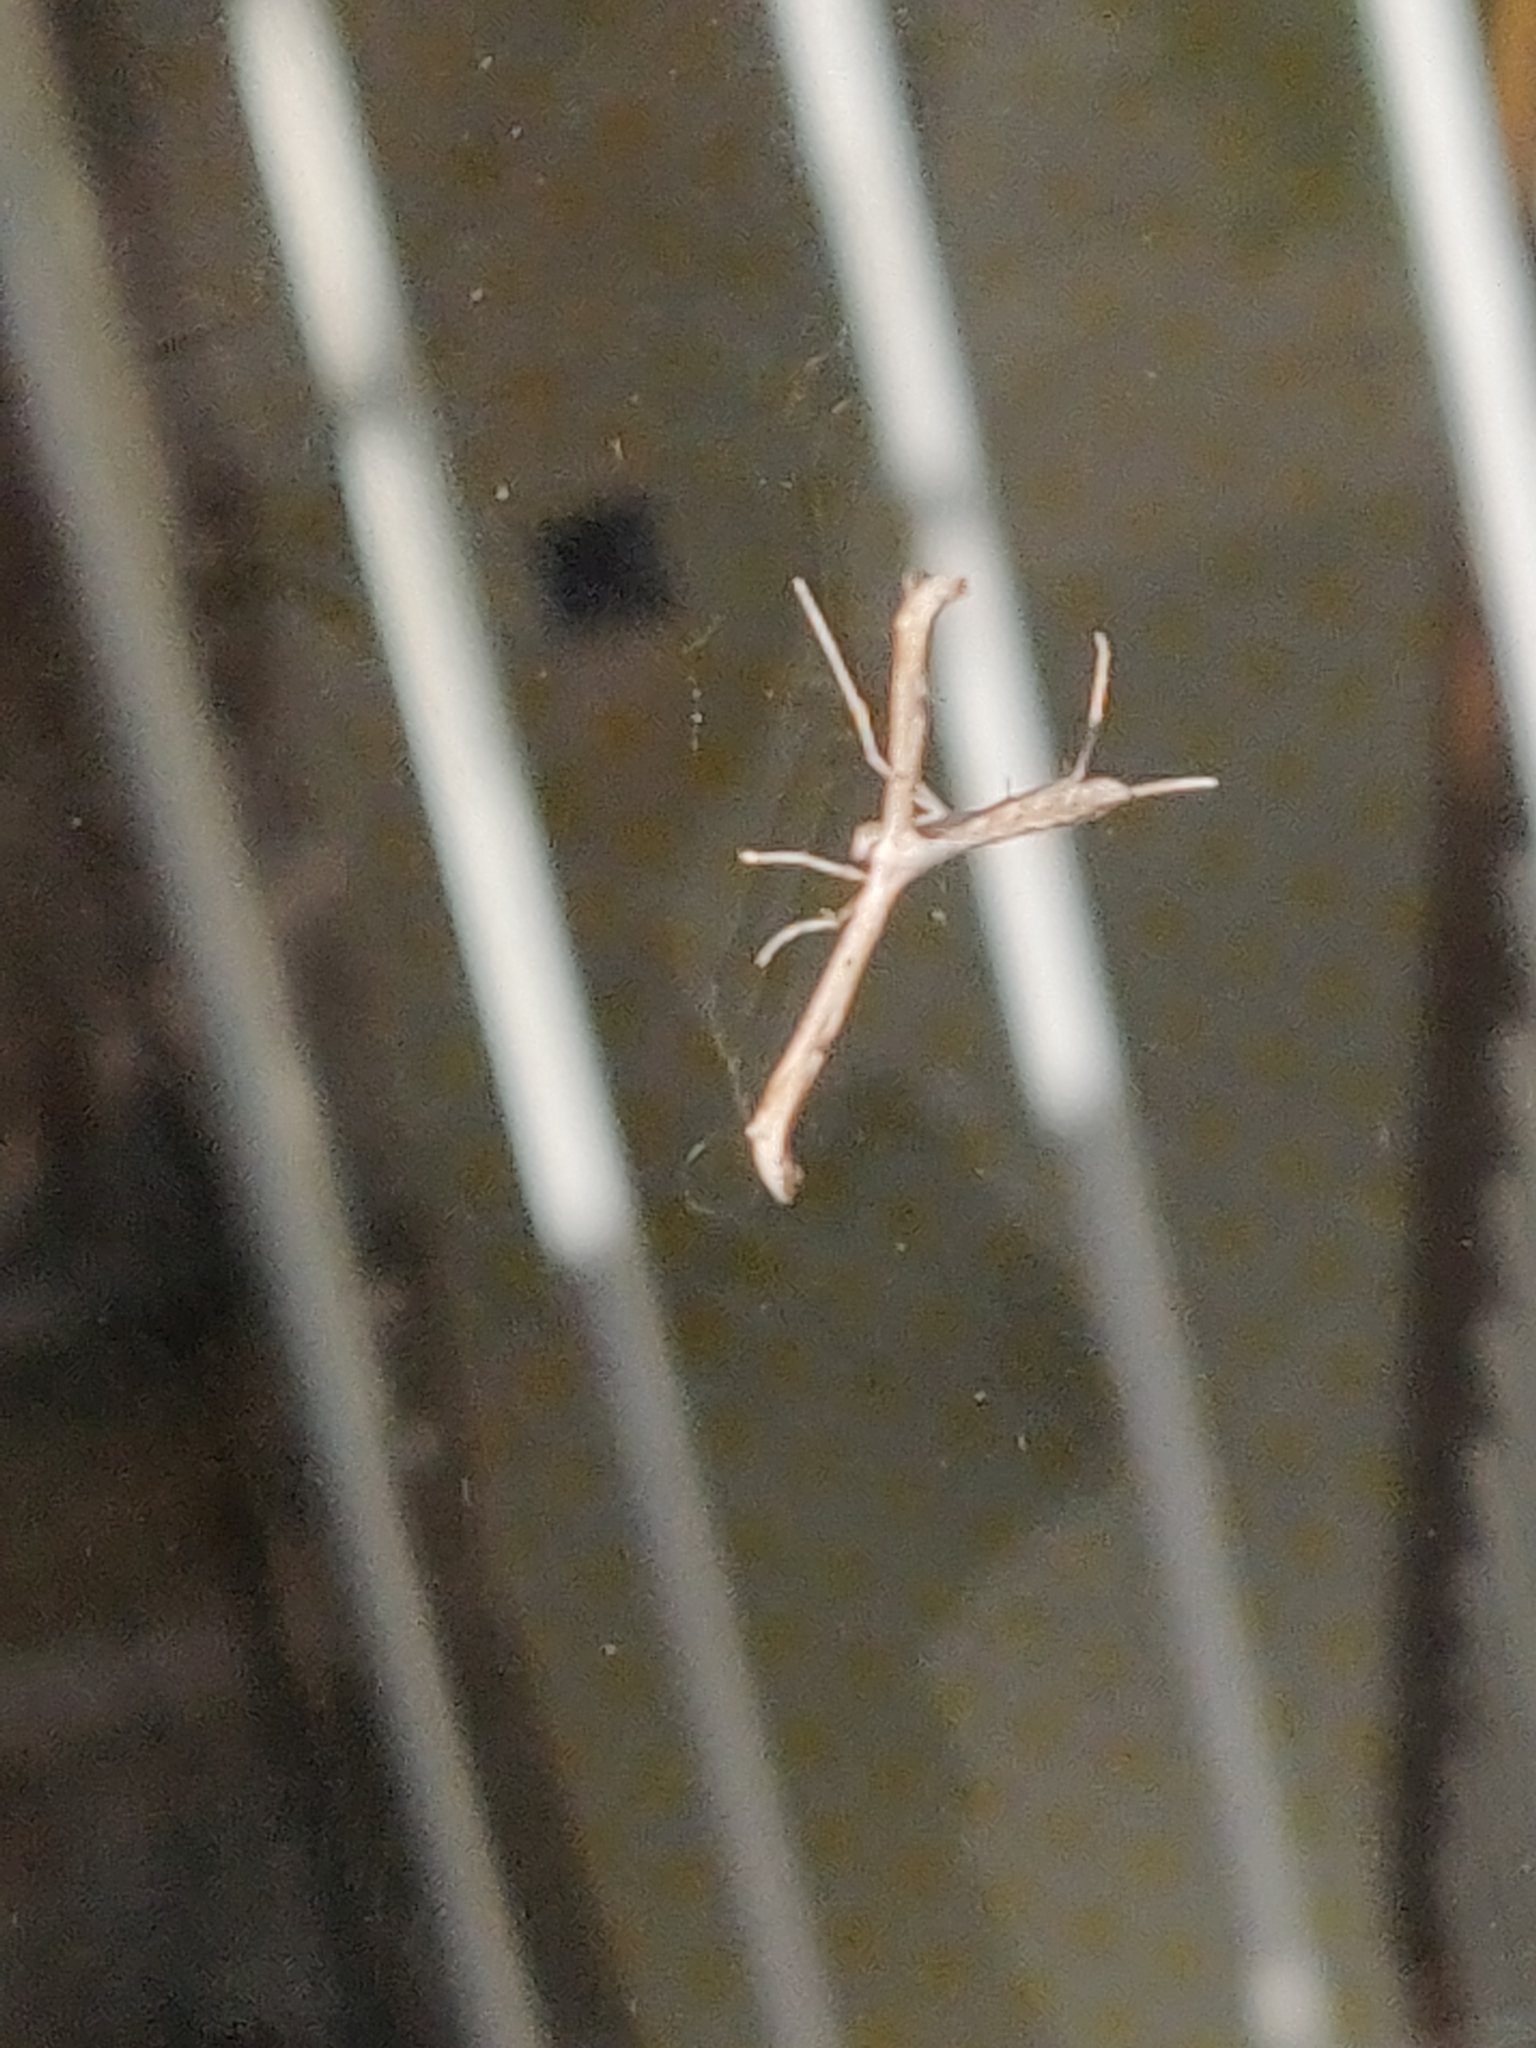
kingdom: Animalia
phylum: Arthropoda
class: Insecta
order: Lepidoptera
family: Pterophoridae
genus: Emmelina
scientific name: Emmelina monodactyla
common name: Common plume
